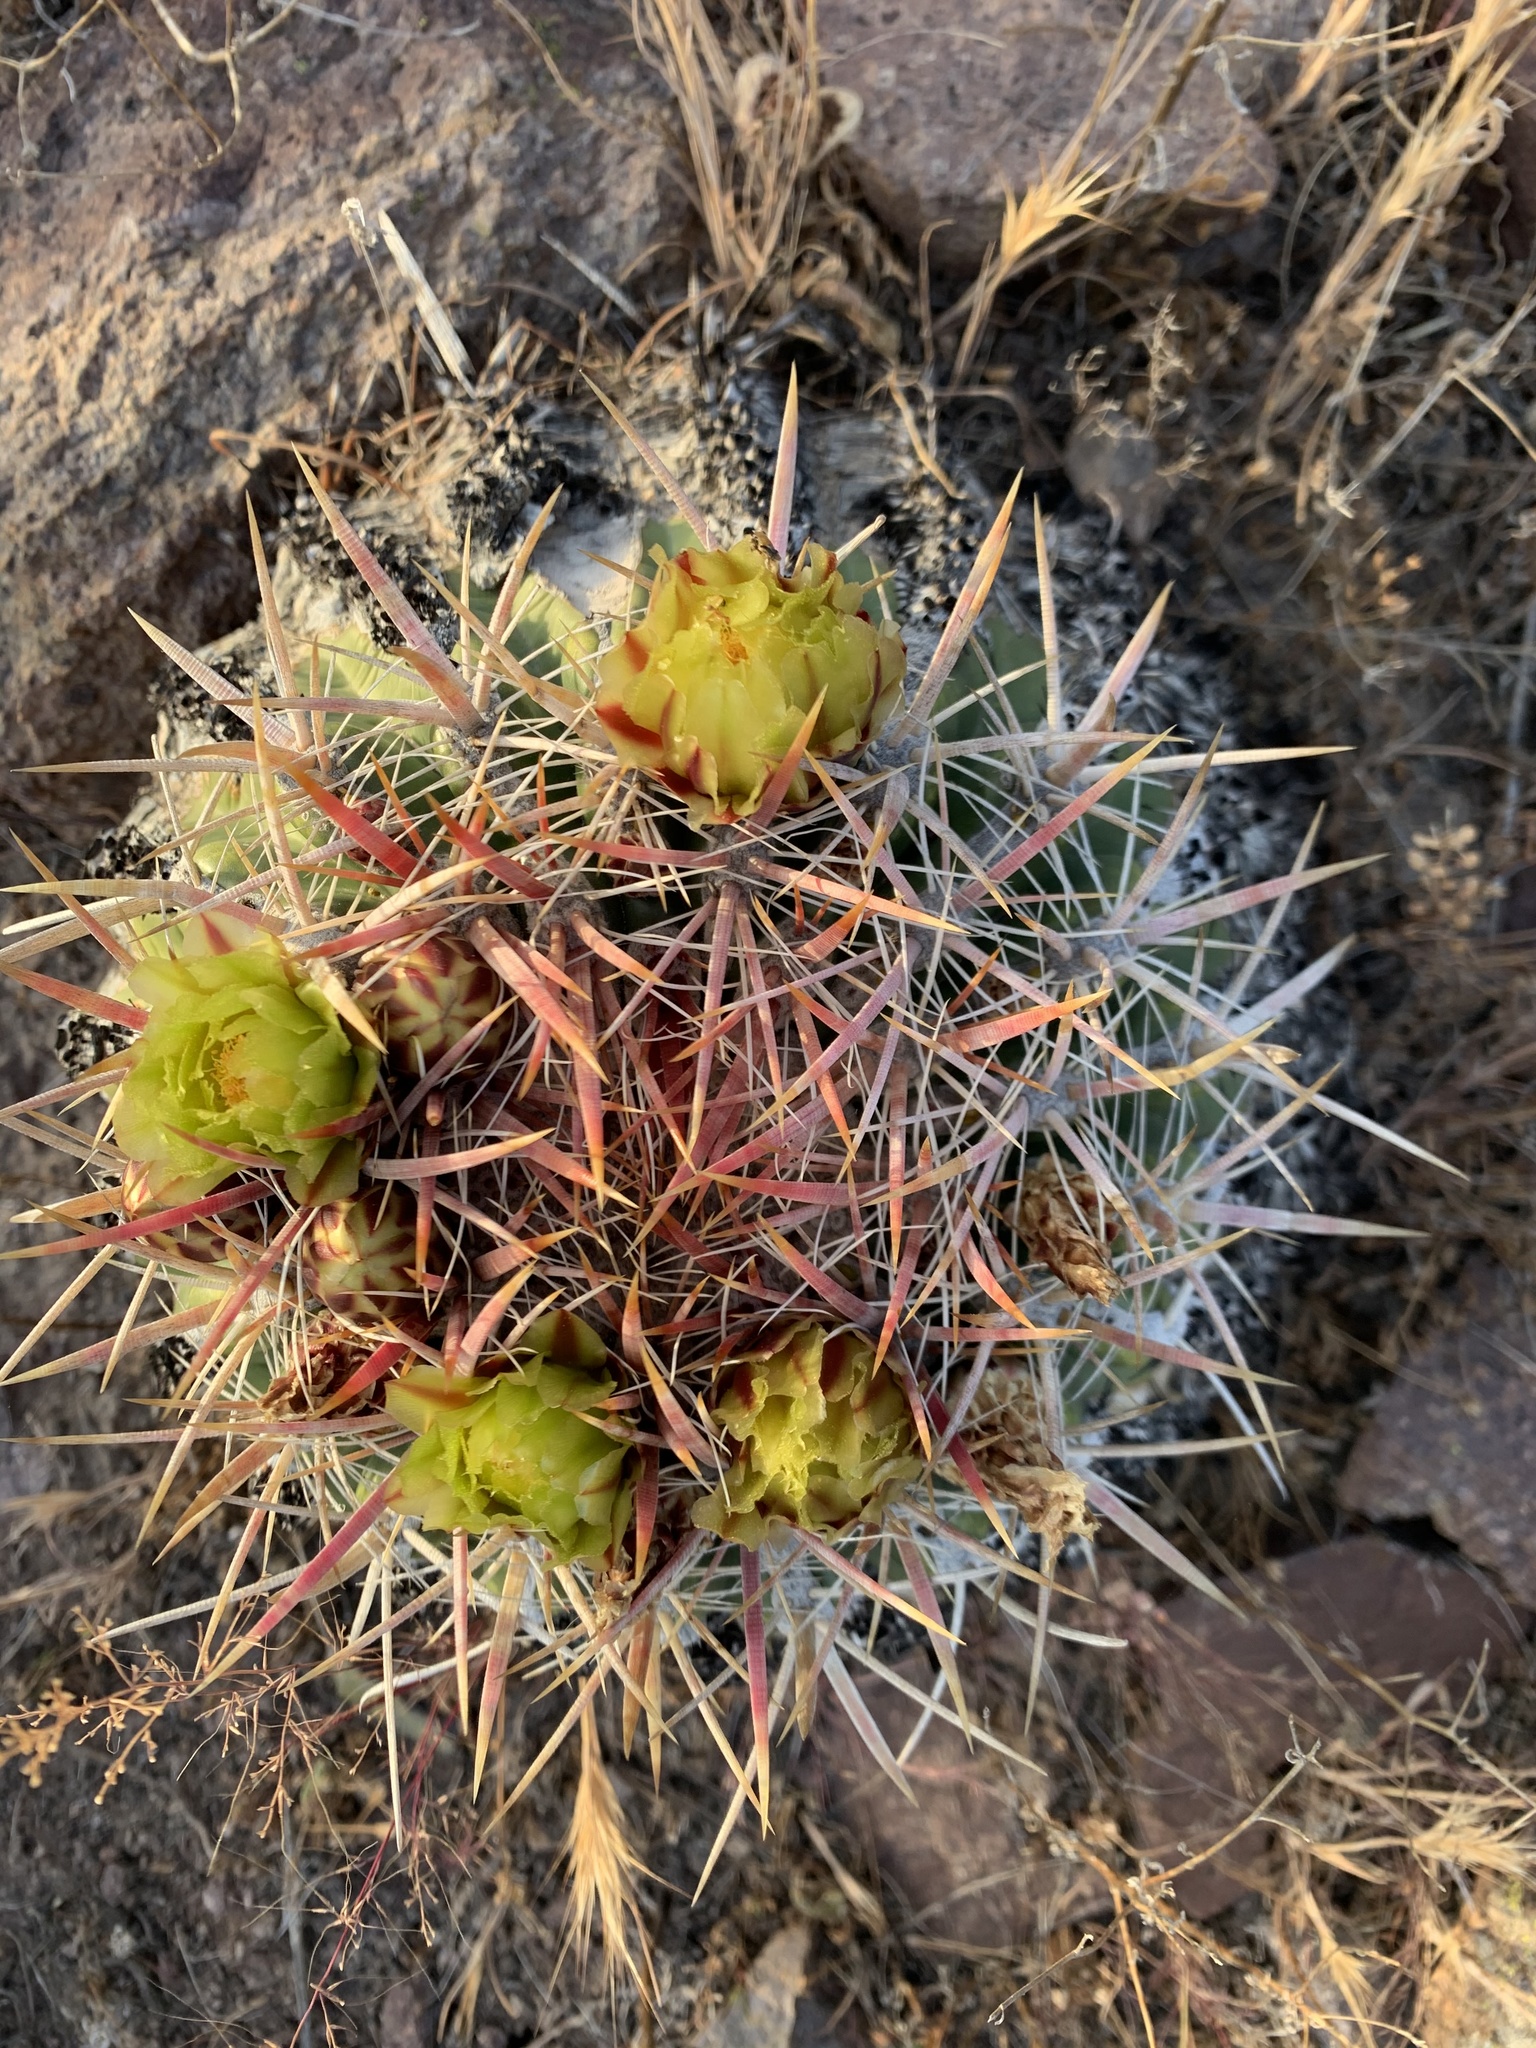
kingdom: Plantae
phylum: Tracheophyta
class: Magnoliopsida
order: Caryophyllales
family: Cactaceae
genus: Ferocactus
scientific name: Ferocactus viridescens
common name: San diego barrel cactus
